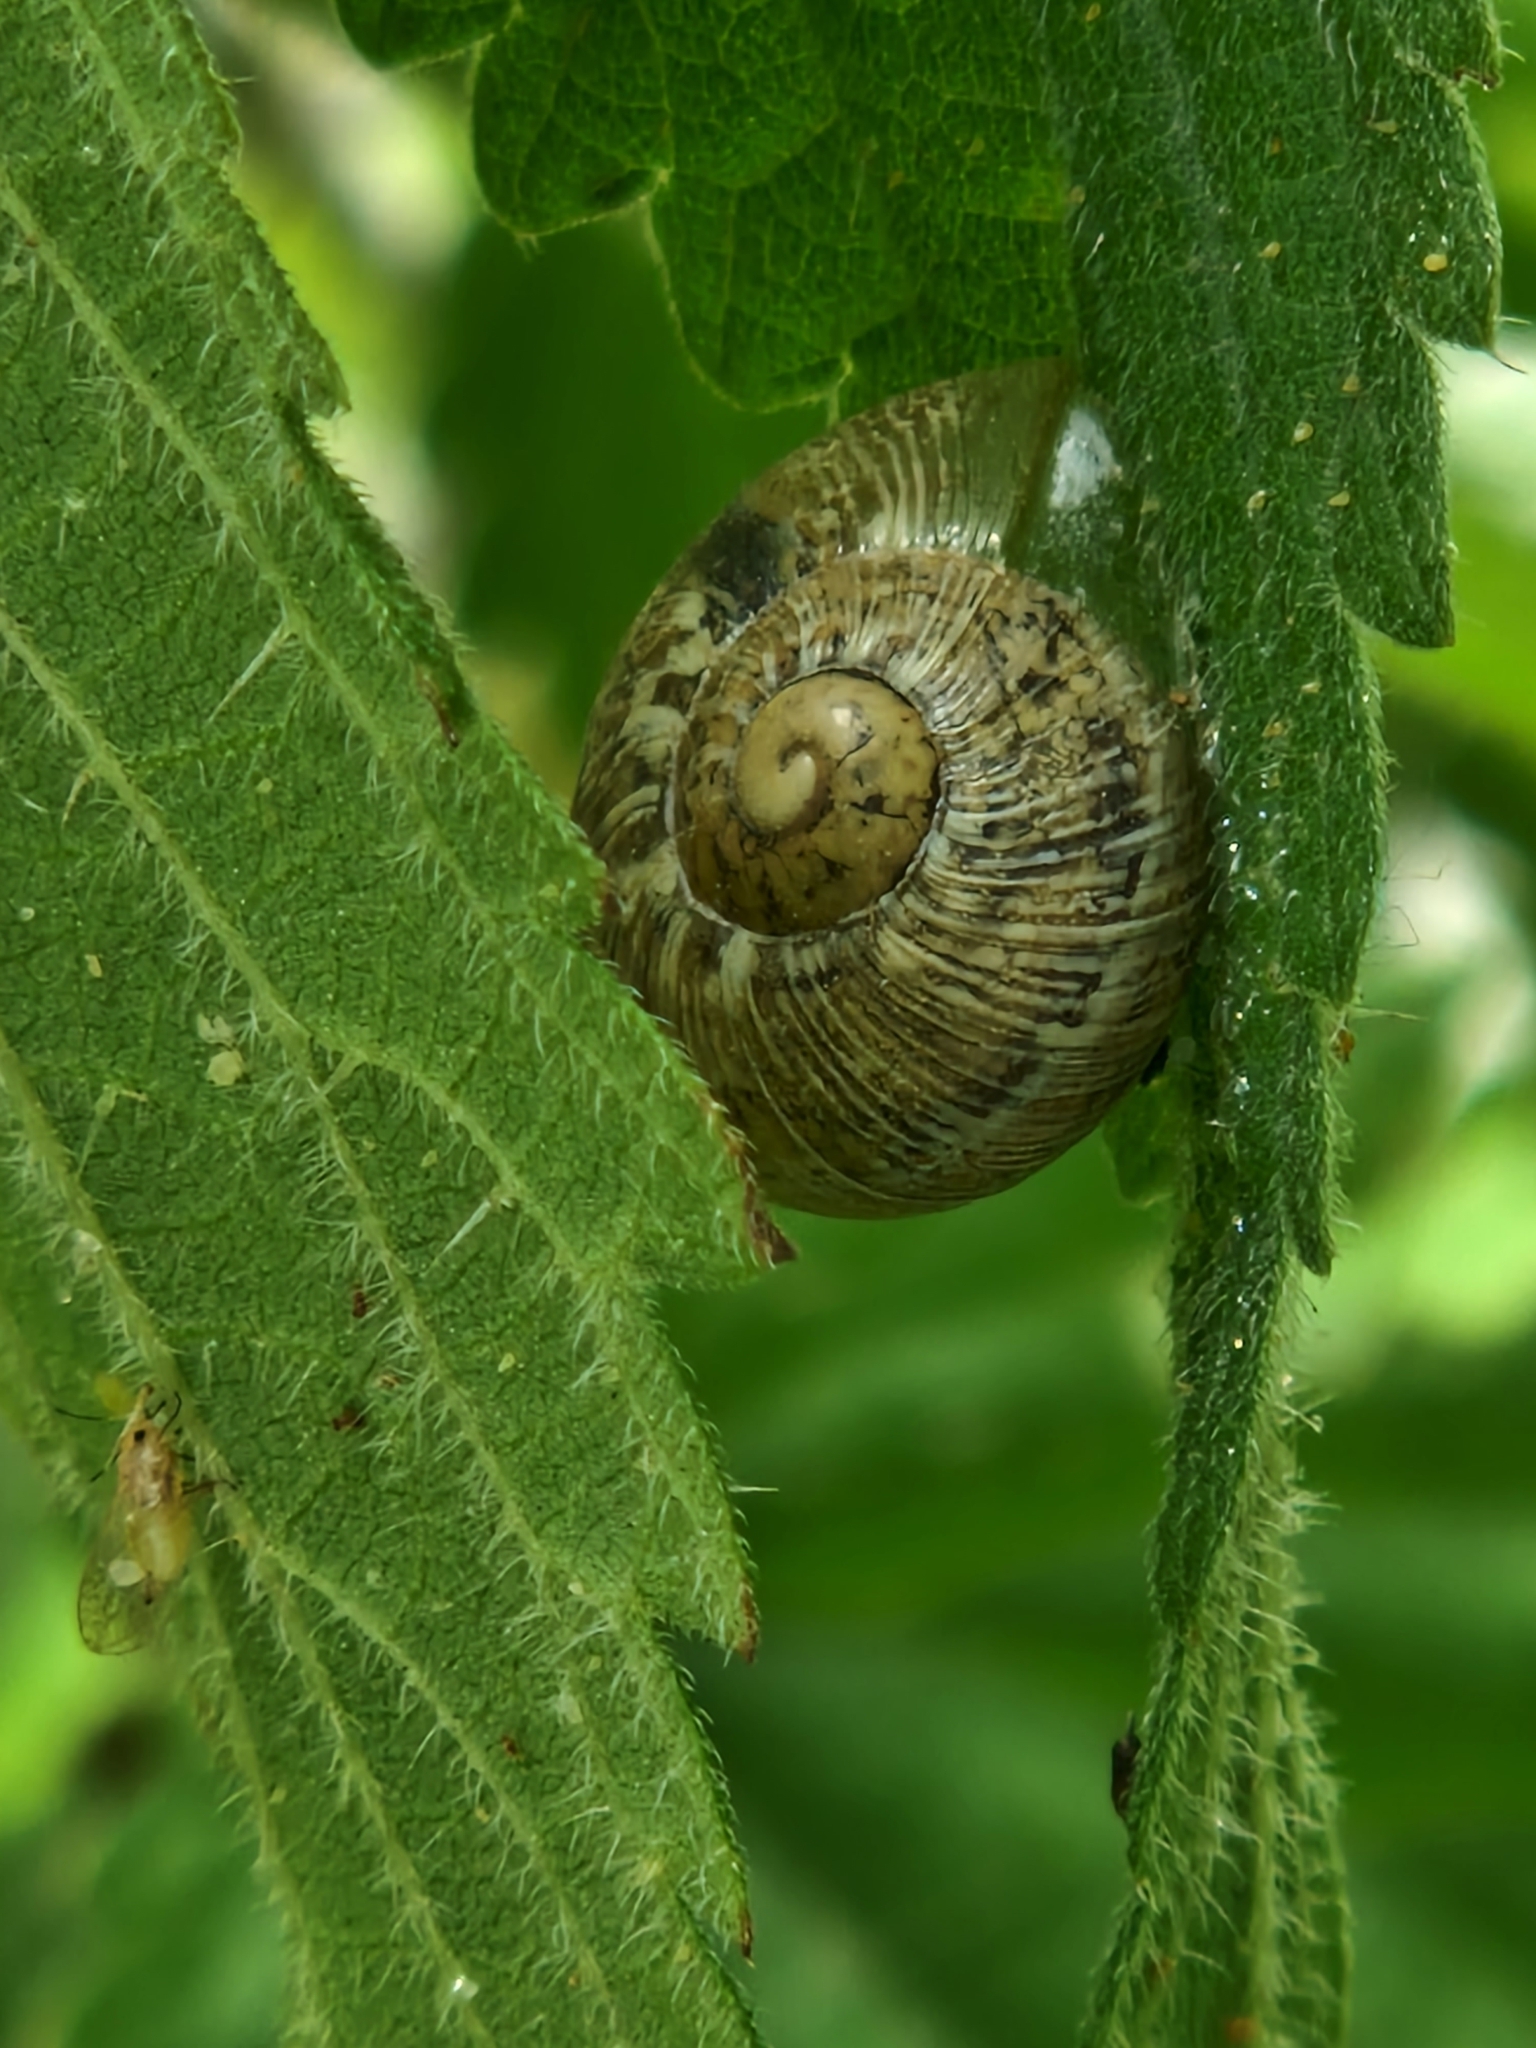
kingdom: Animalia
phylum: Mollusca
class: Gastropoda
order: Stylommatophora
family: Helicidae
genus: Cornu
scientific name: Cornu aspersum
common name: Brown garden snail
